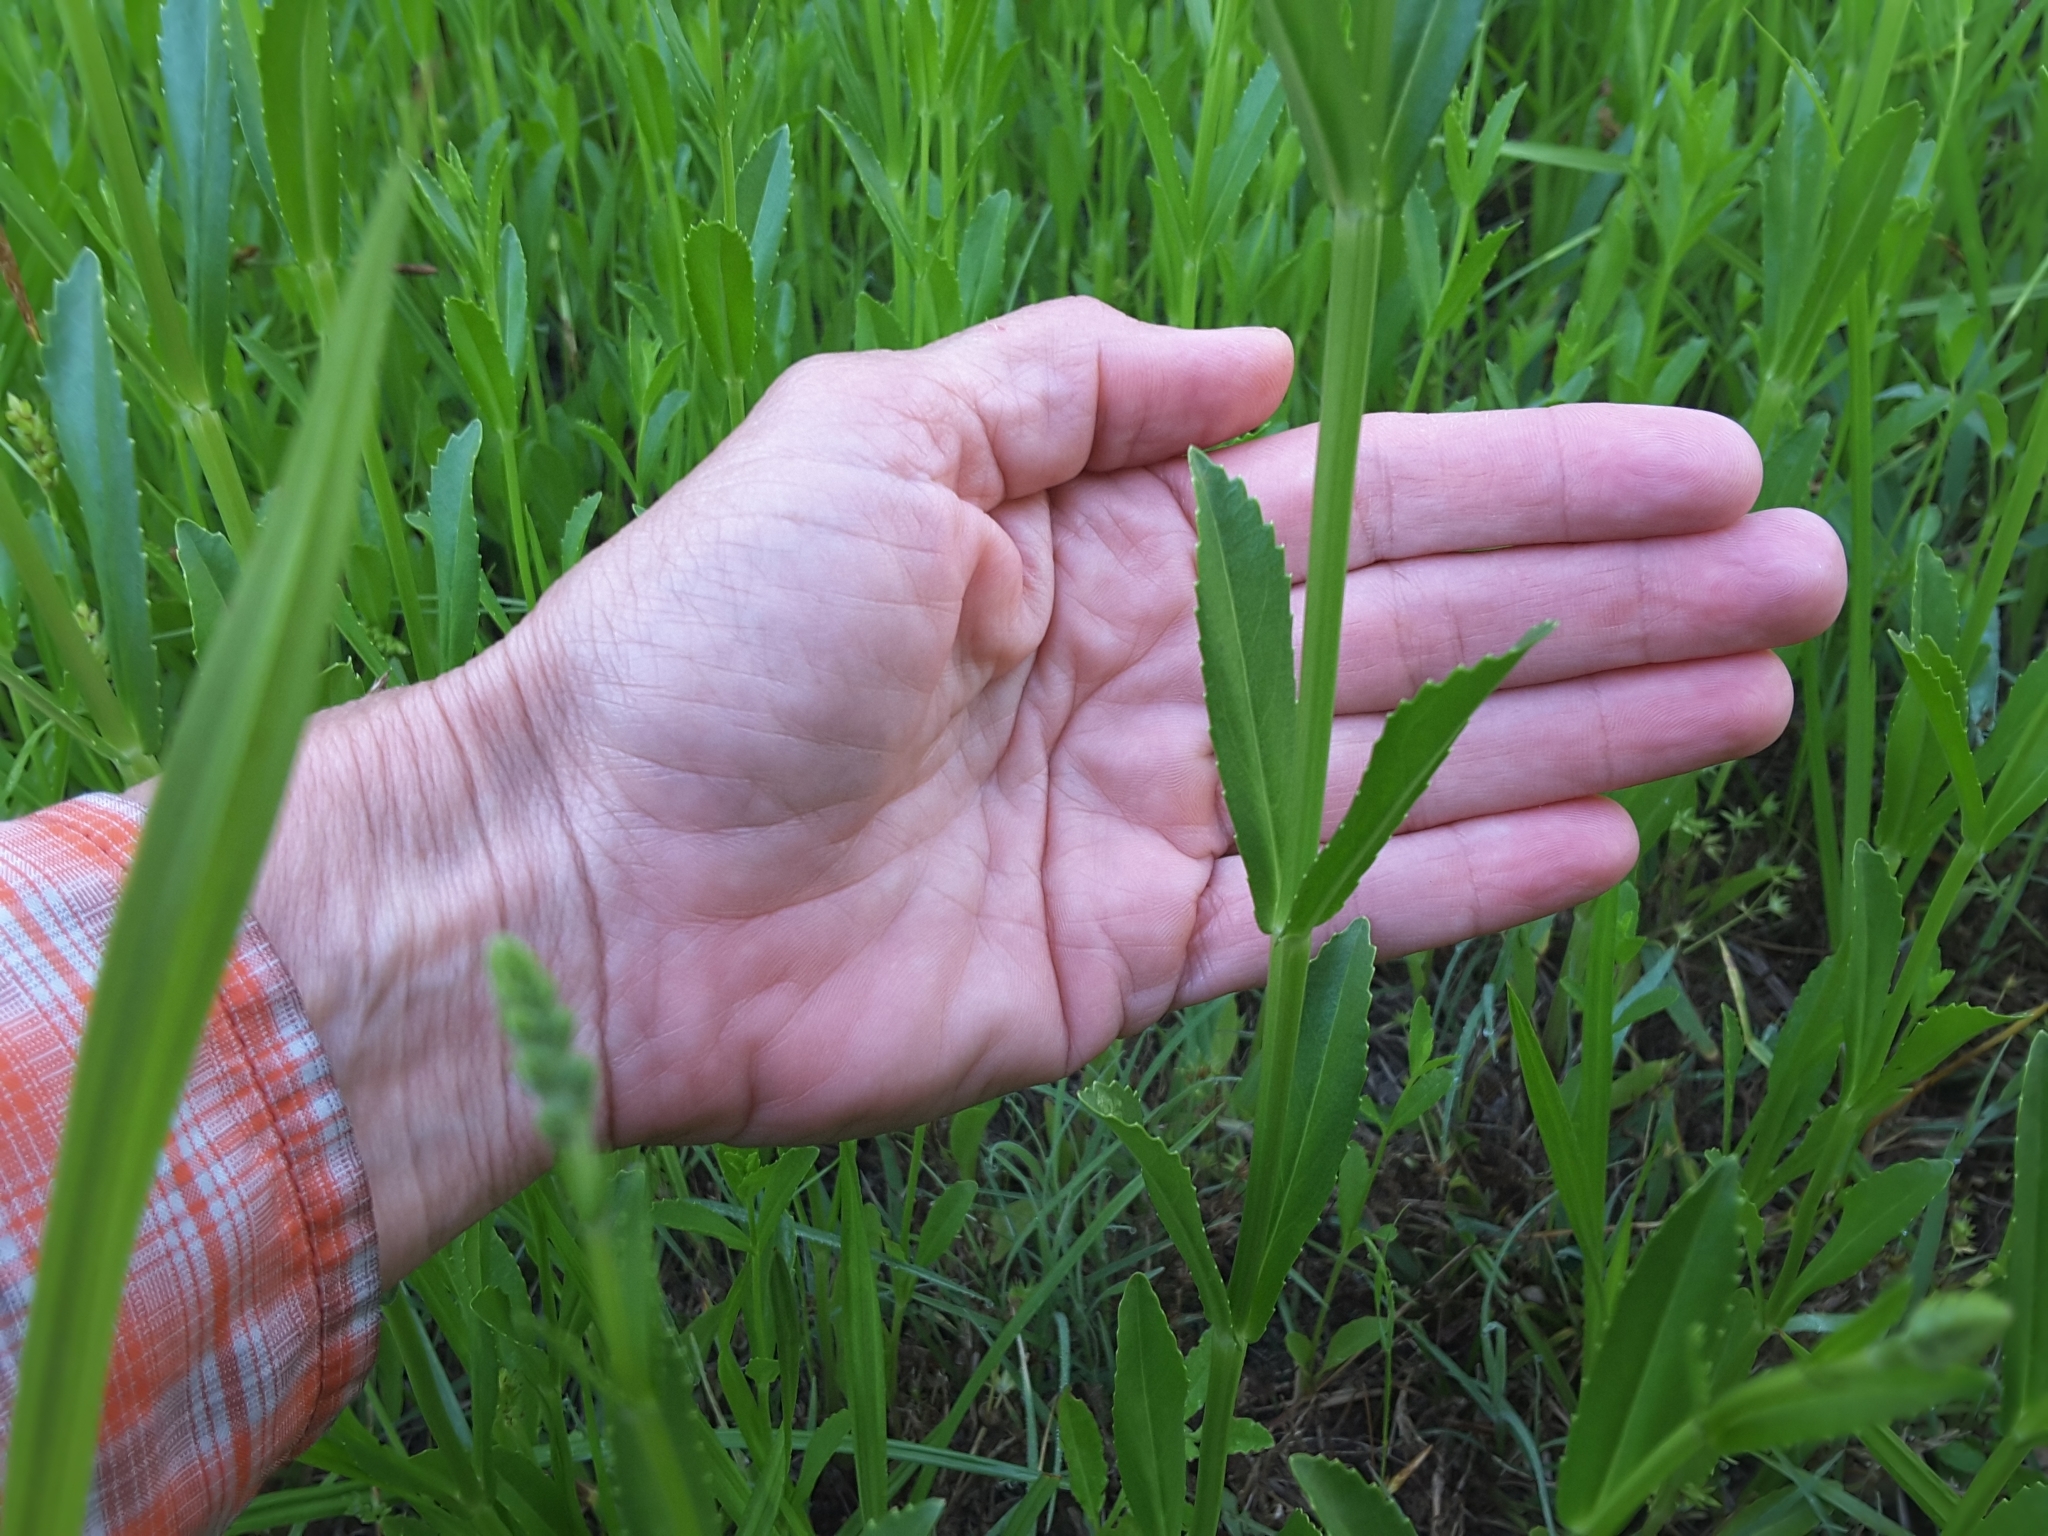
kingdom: Plantae
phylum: Tracheophyta
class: Magnoliopsida
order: Lamiales
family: Lamiaceae
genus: Physostegia
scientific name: Physostegia virginiana
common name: Obedient-plant
